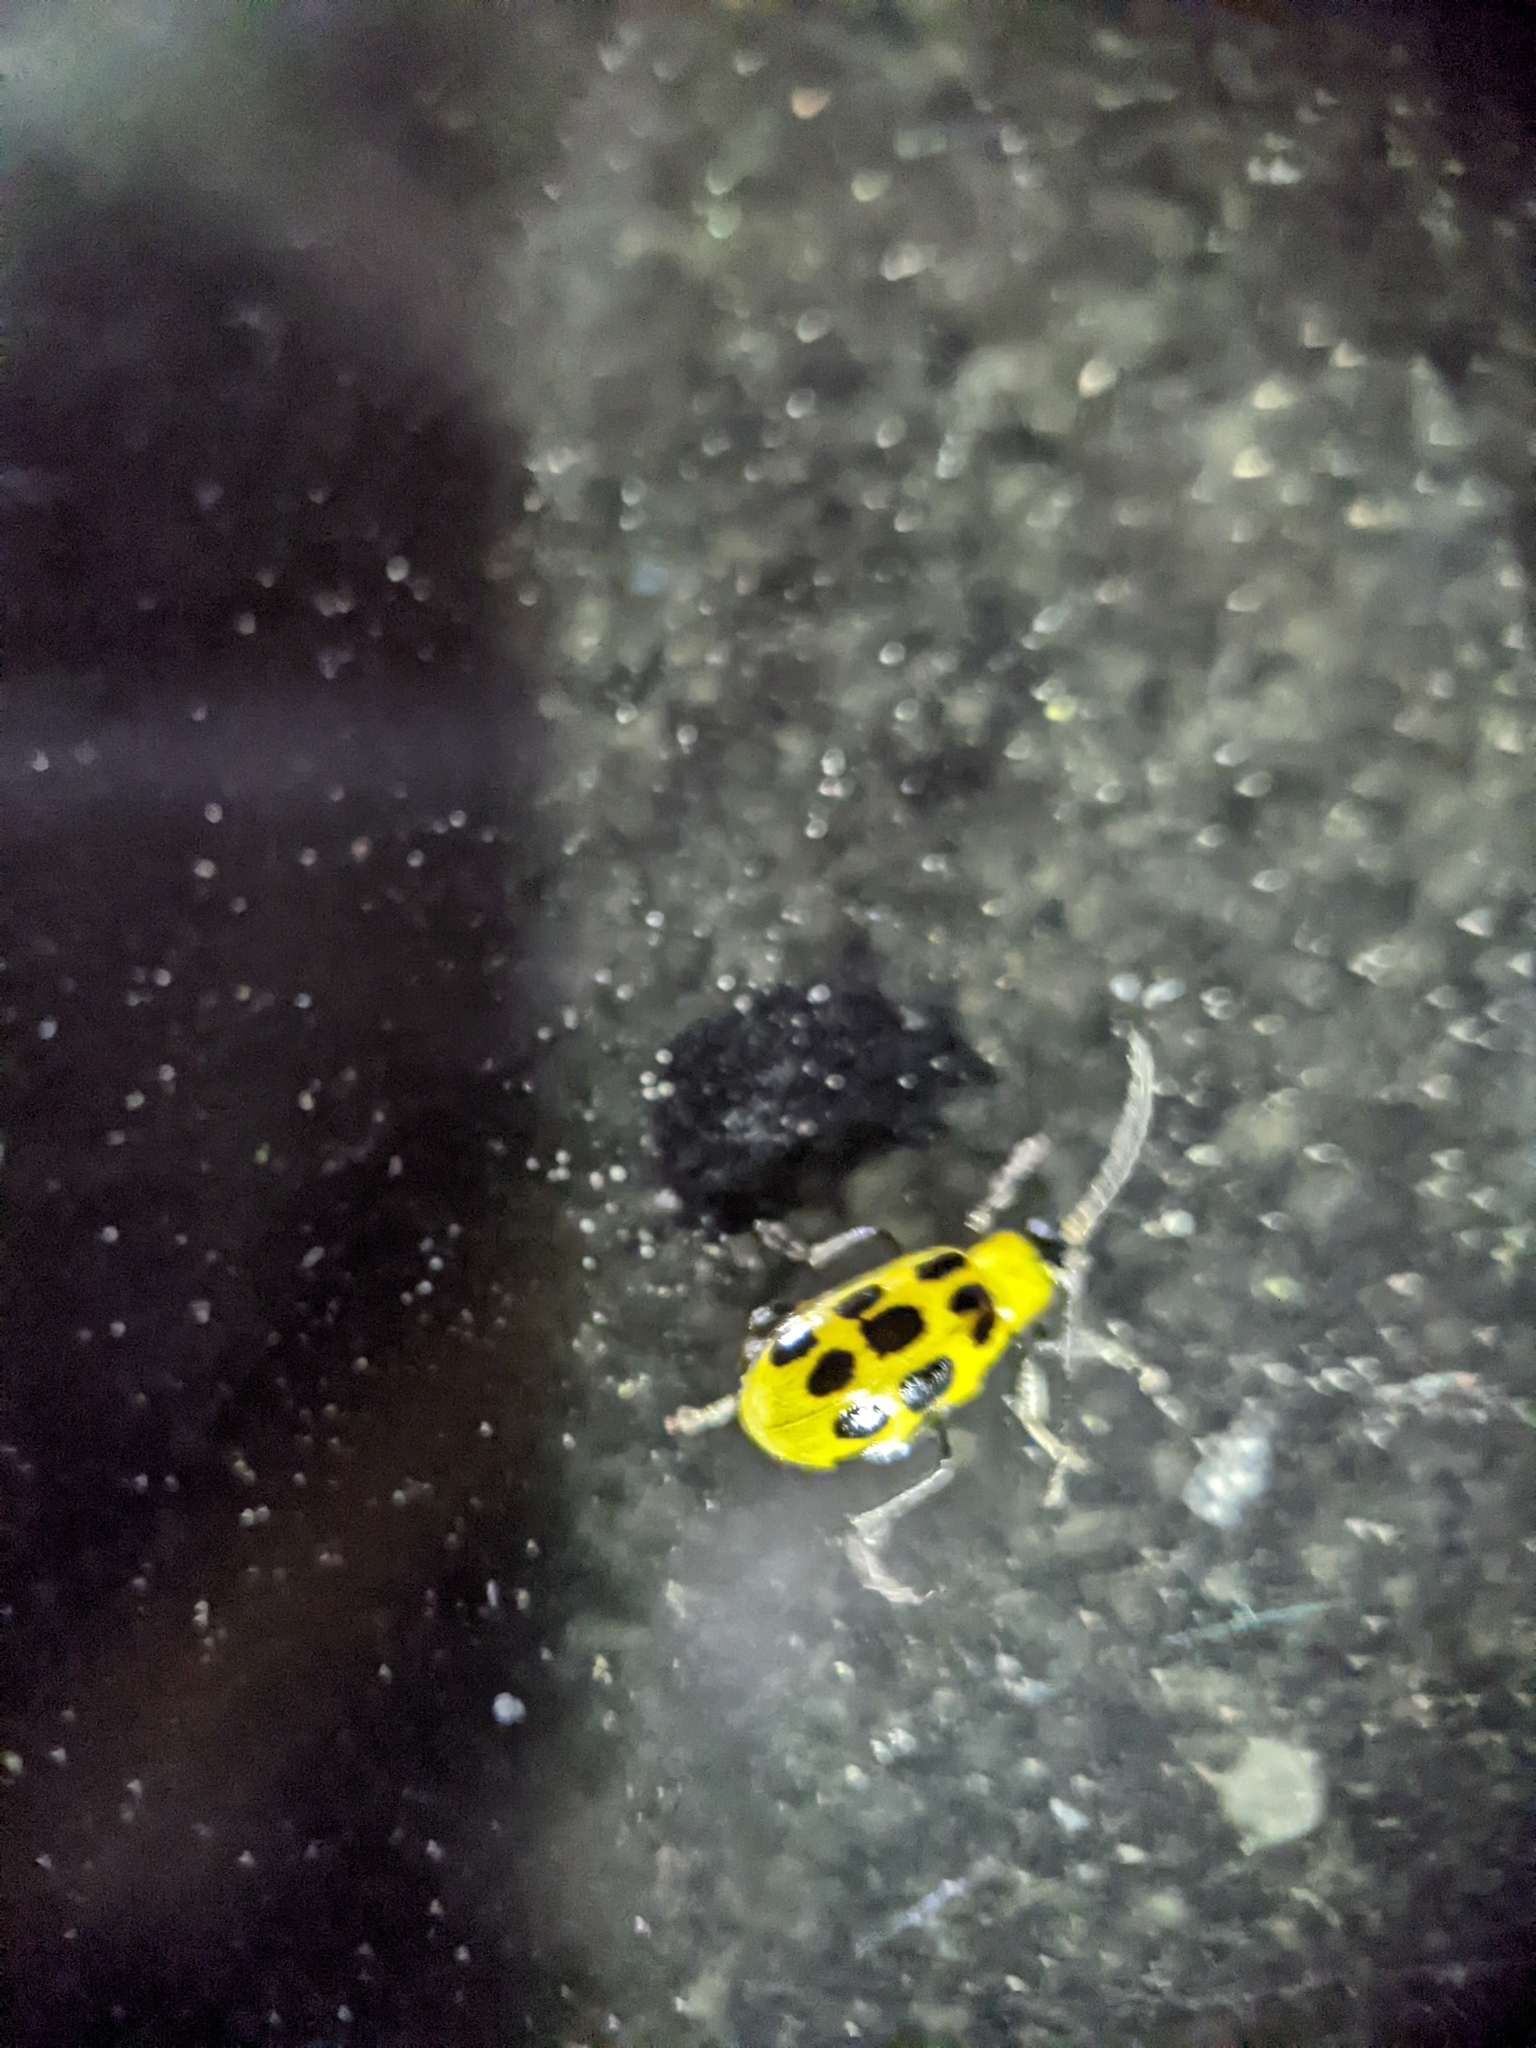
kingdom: Animalia
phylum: Arthropoda
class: Insecta
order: Coleoptera
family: Chrysomelidae
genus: Diabrotica
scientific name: Diabrotica undecimpunctata
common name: Spotted cucumber beetle
